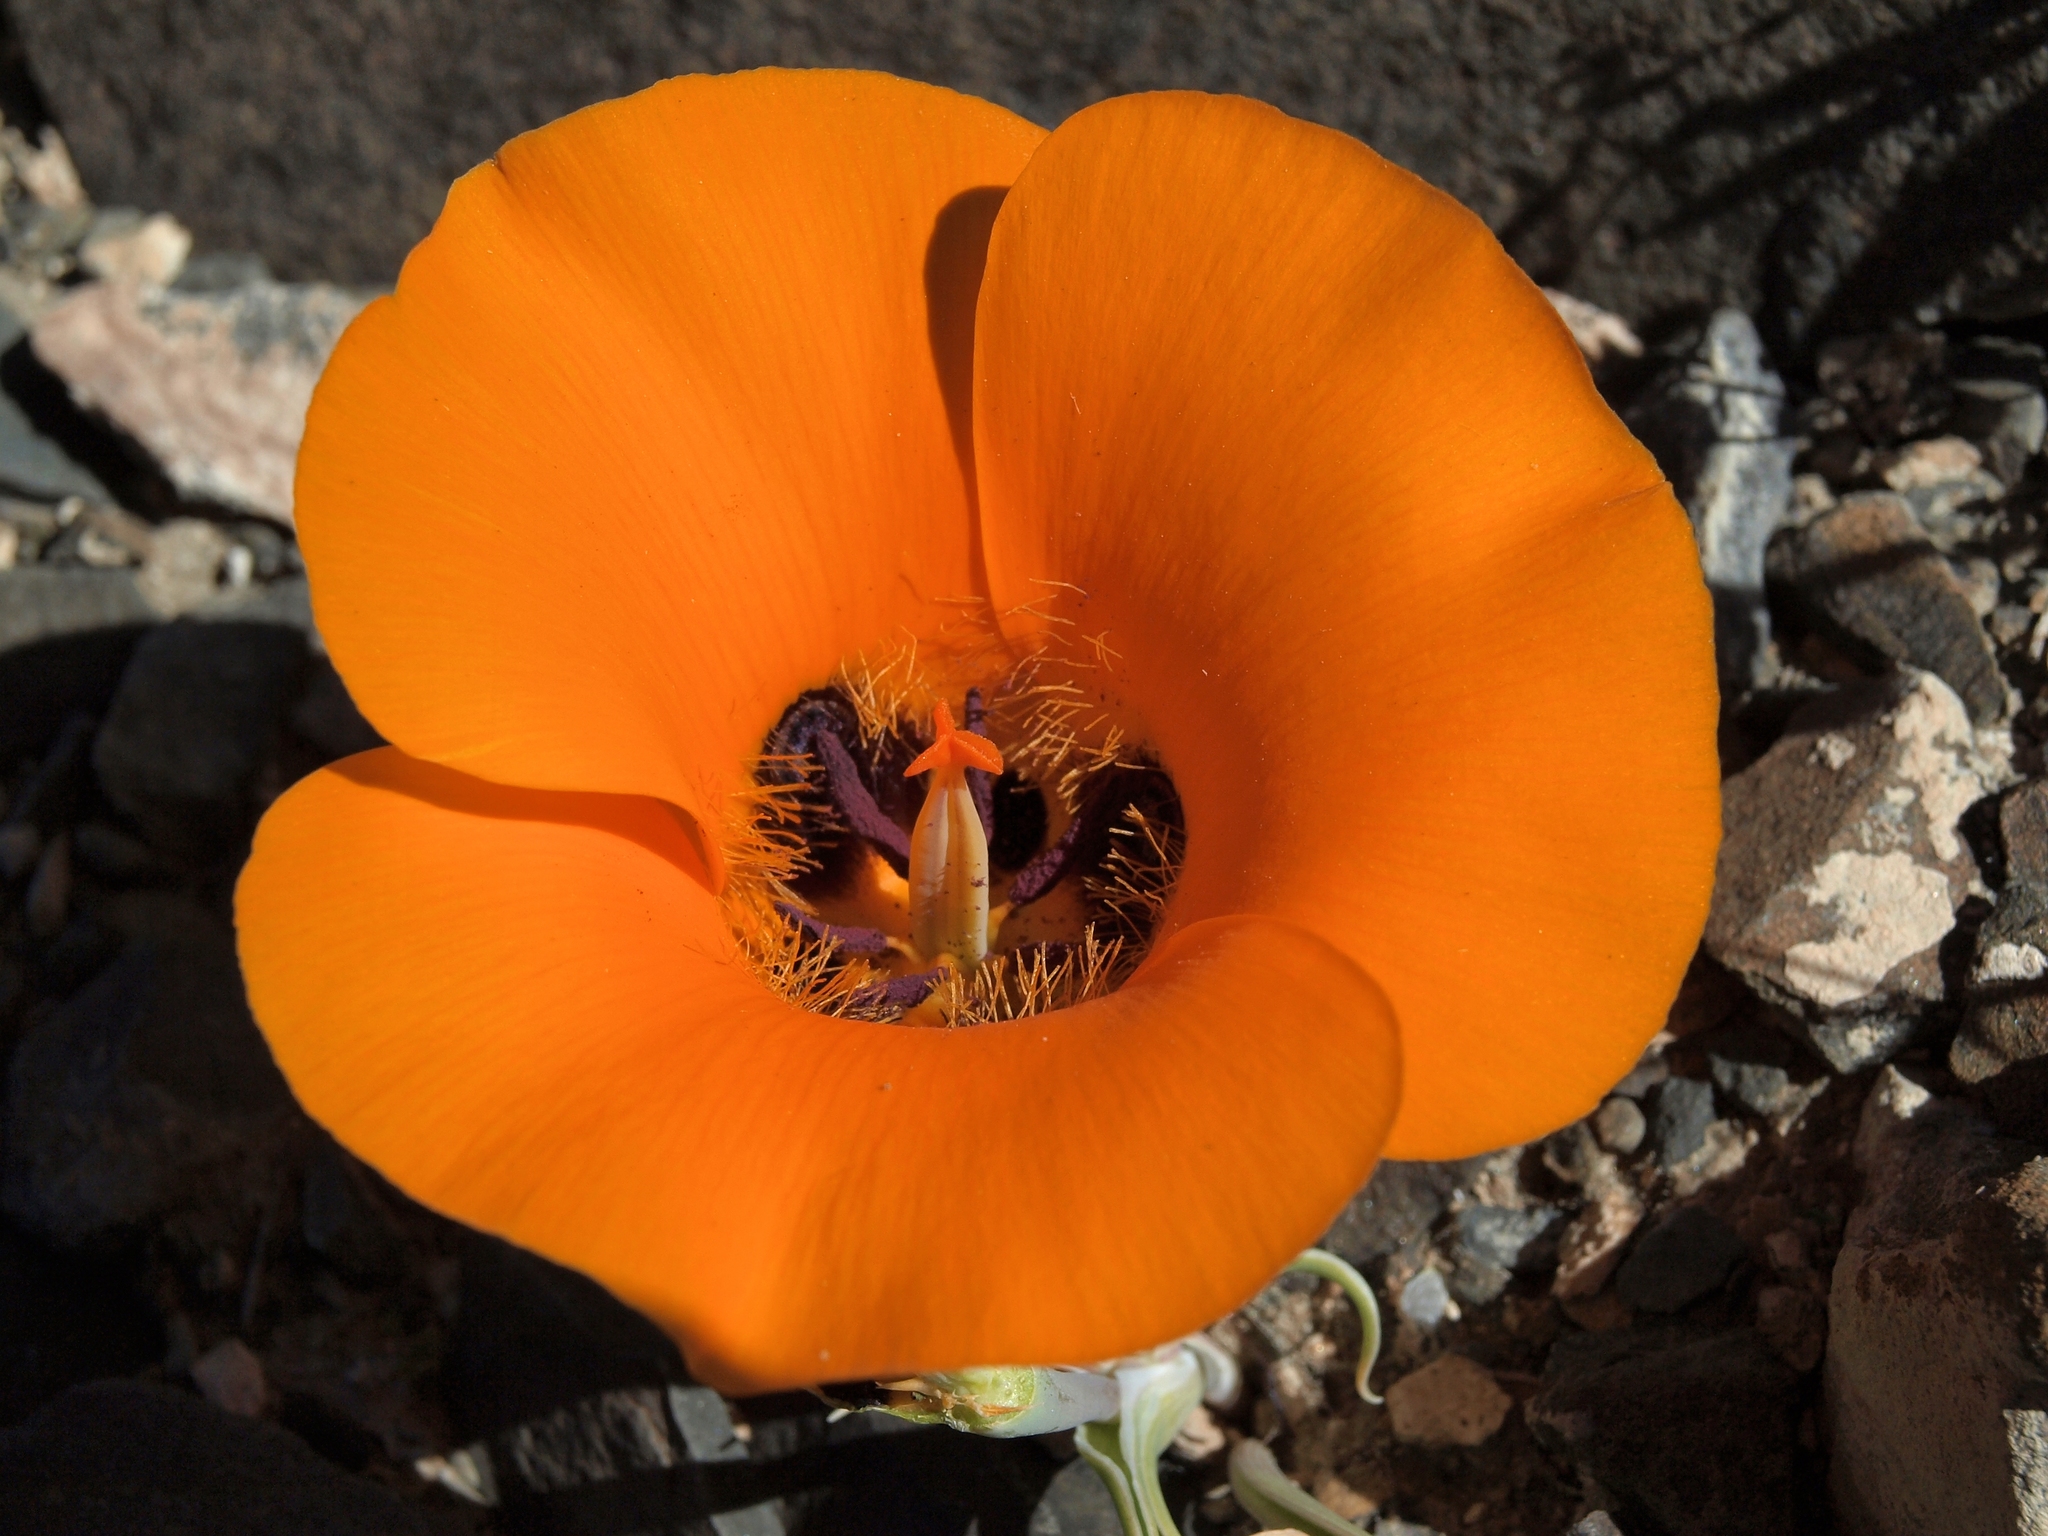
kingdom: Plantae
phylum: Tracheophyta
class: Liliopsida
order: Liliales
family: Liliaceae
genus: Calochortus
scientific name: Calochortus kennedyi
